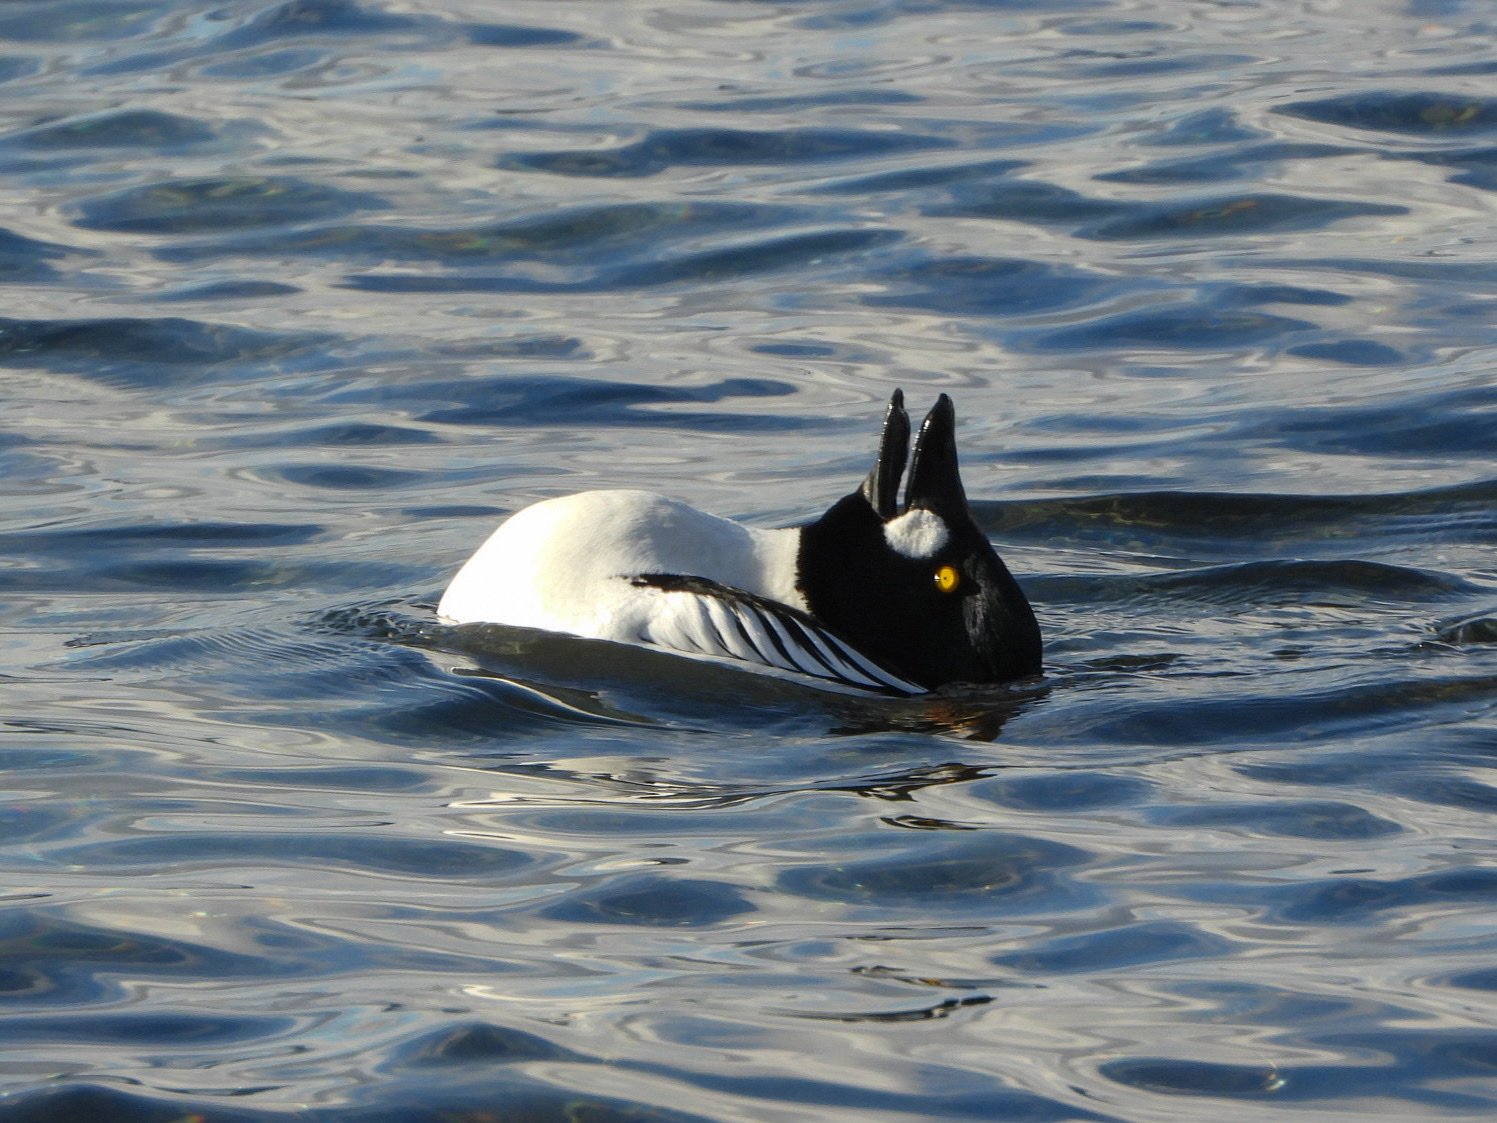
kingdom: Animalia
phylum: Chordata
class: Aves
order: Anseriformes
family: Anatidae
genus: Bucephala
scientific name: Bucephala clangula
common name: Common goldeneye
